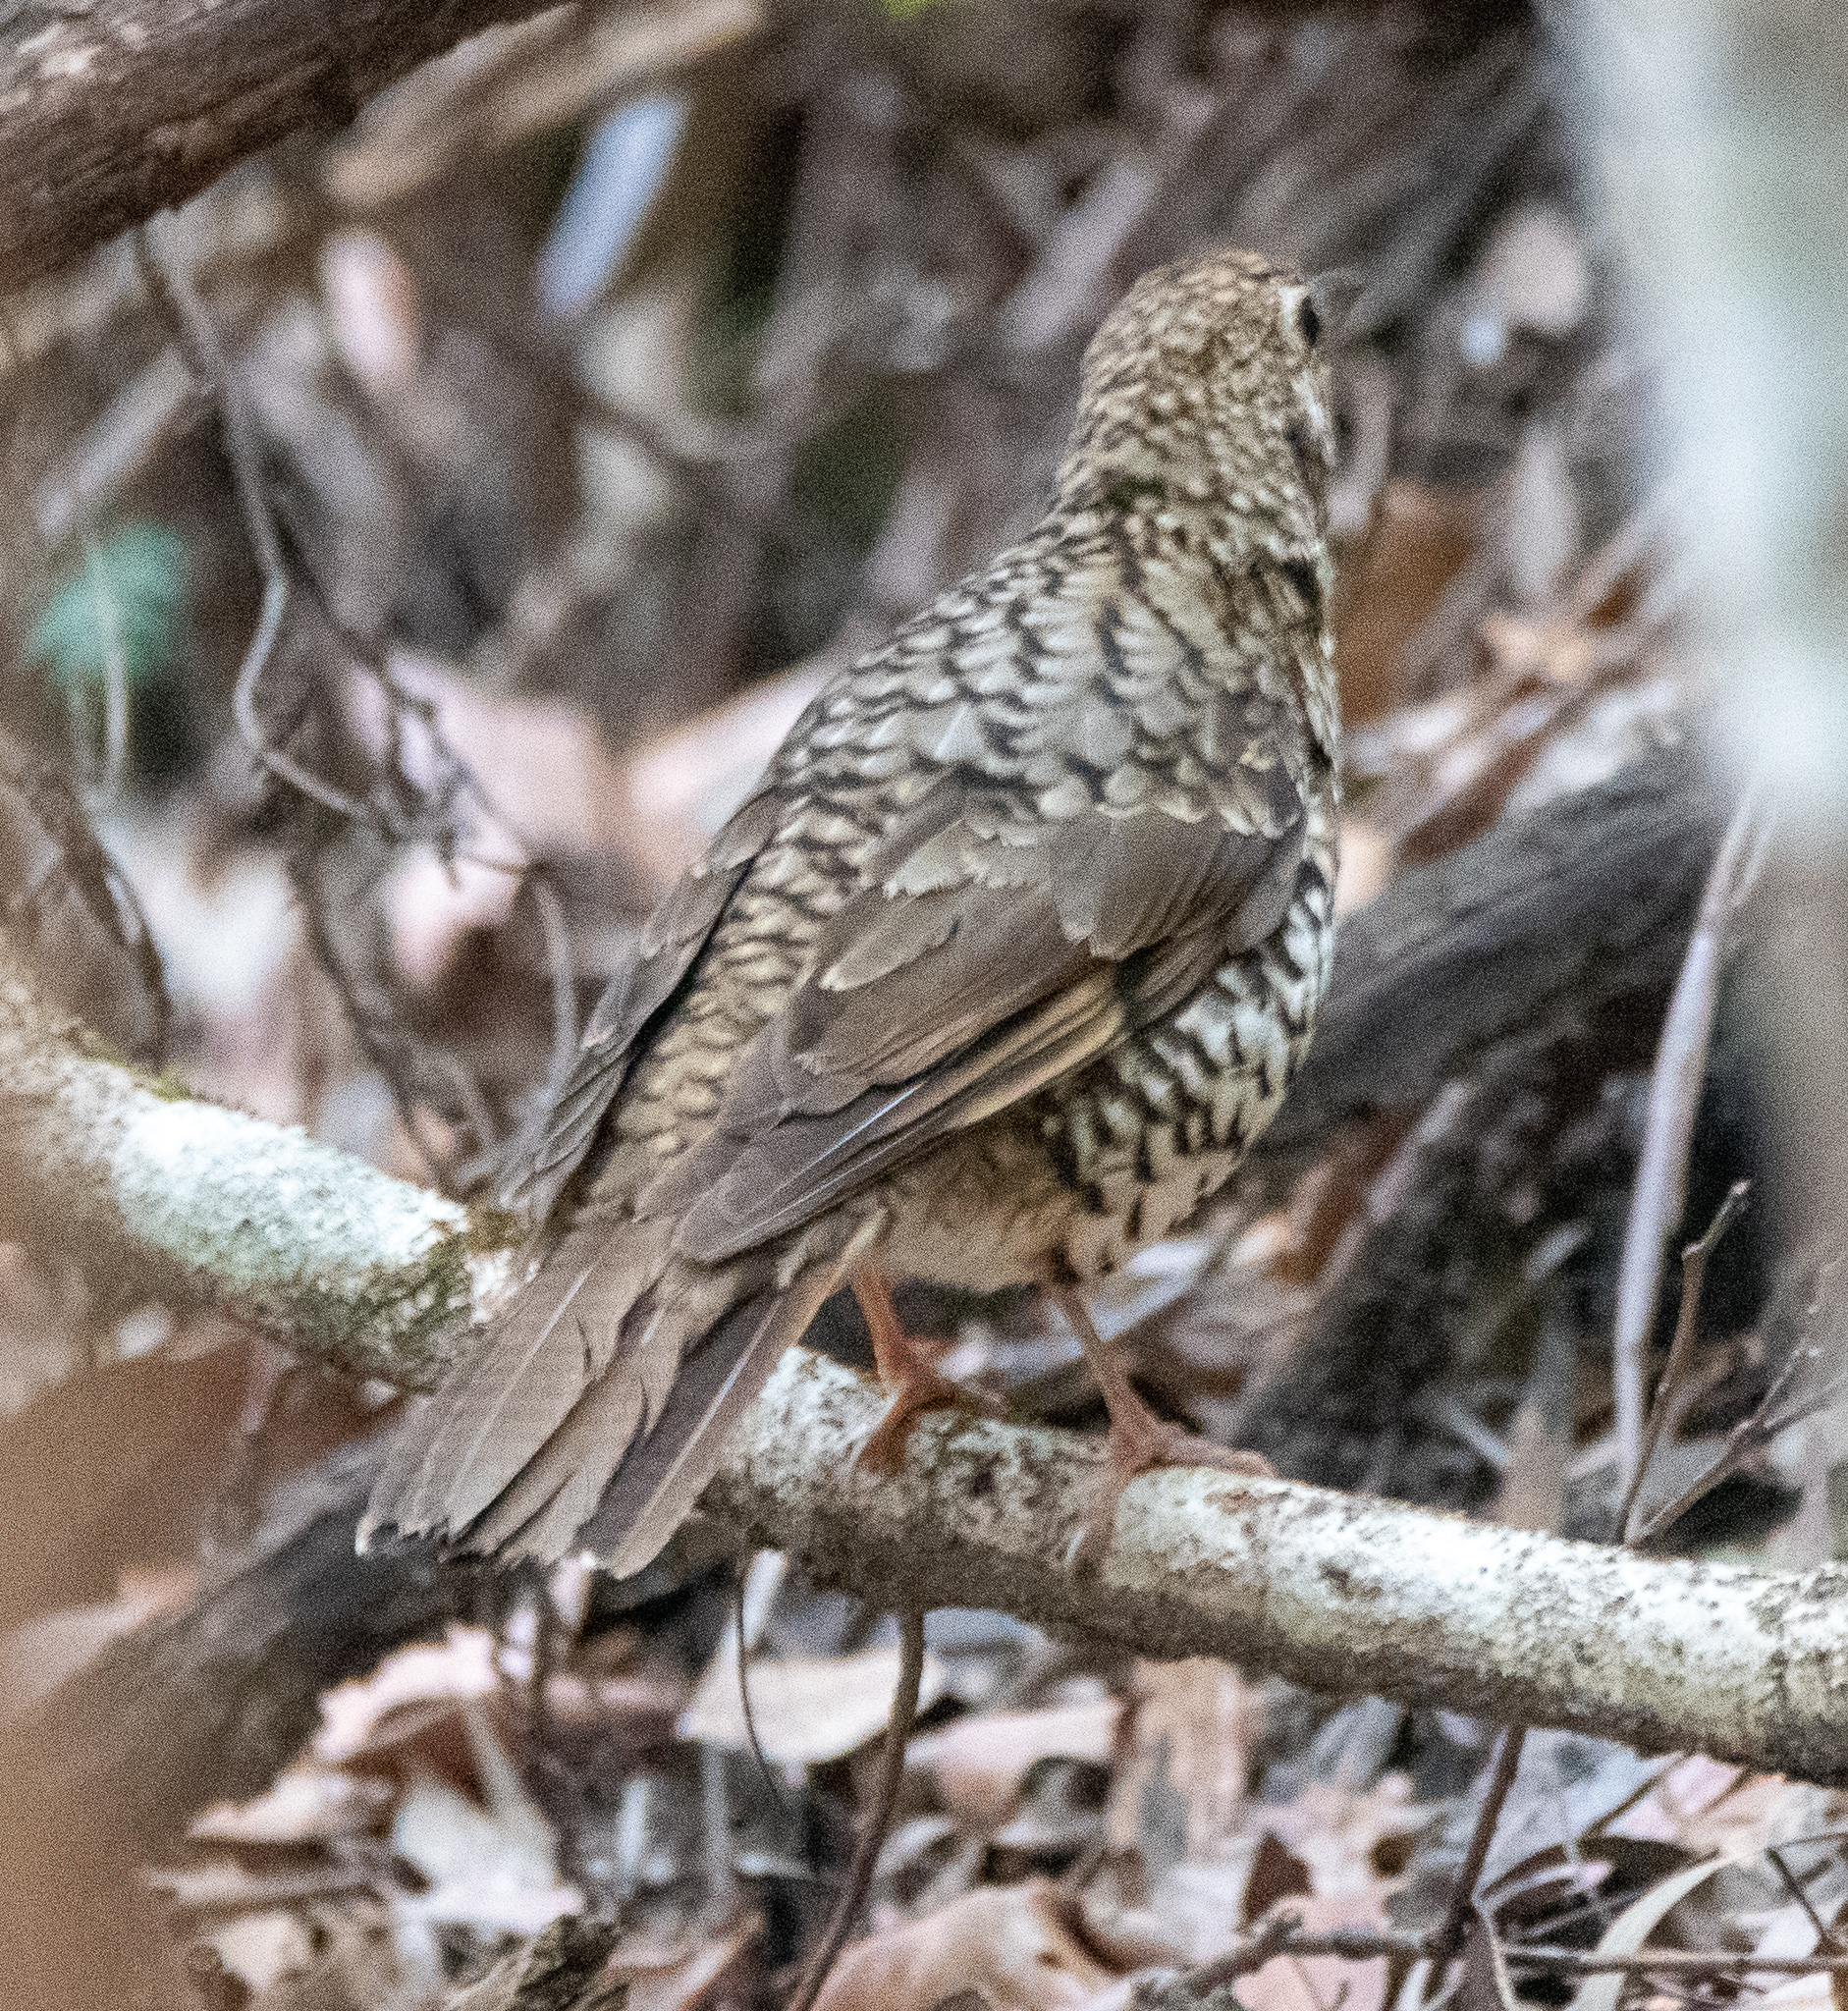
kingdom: Animalia
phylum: Chordata
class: Aves
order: Passeriformes
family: Turdidae
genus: Zoothera
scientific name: Zoothera lunulata
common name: Bassian thrush
